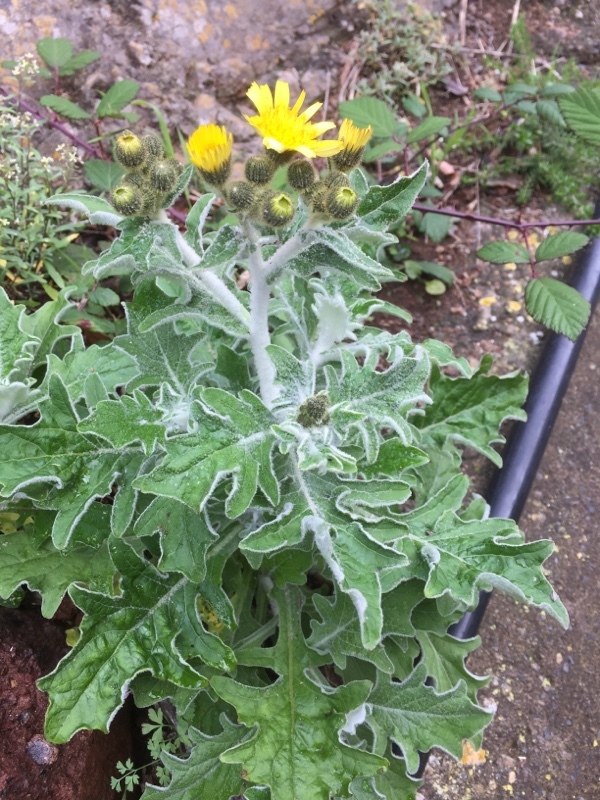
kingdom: Plantae
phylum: Tracheophyta
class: Magnoliopsida
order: Asterales
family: Asteraceae
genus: Andryala
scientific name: Andryala pinnatifida
